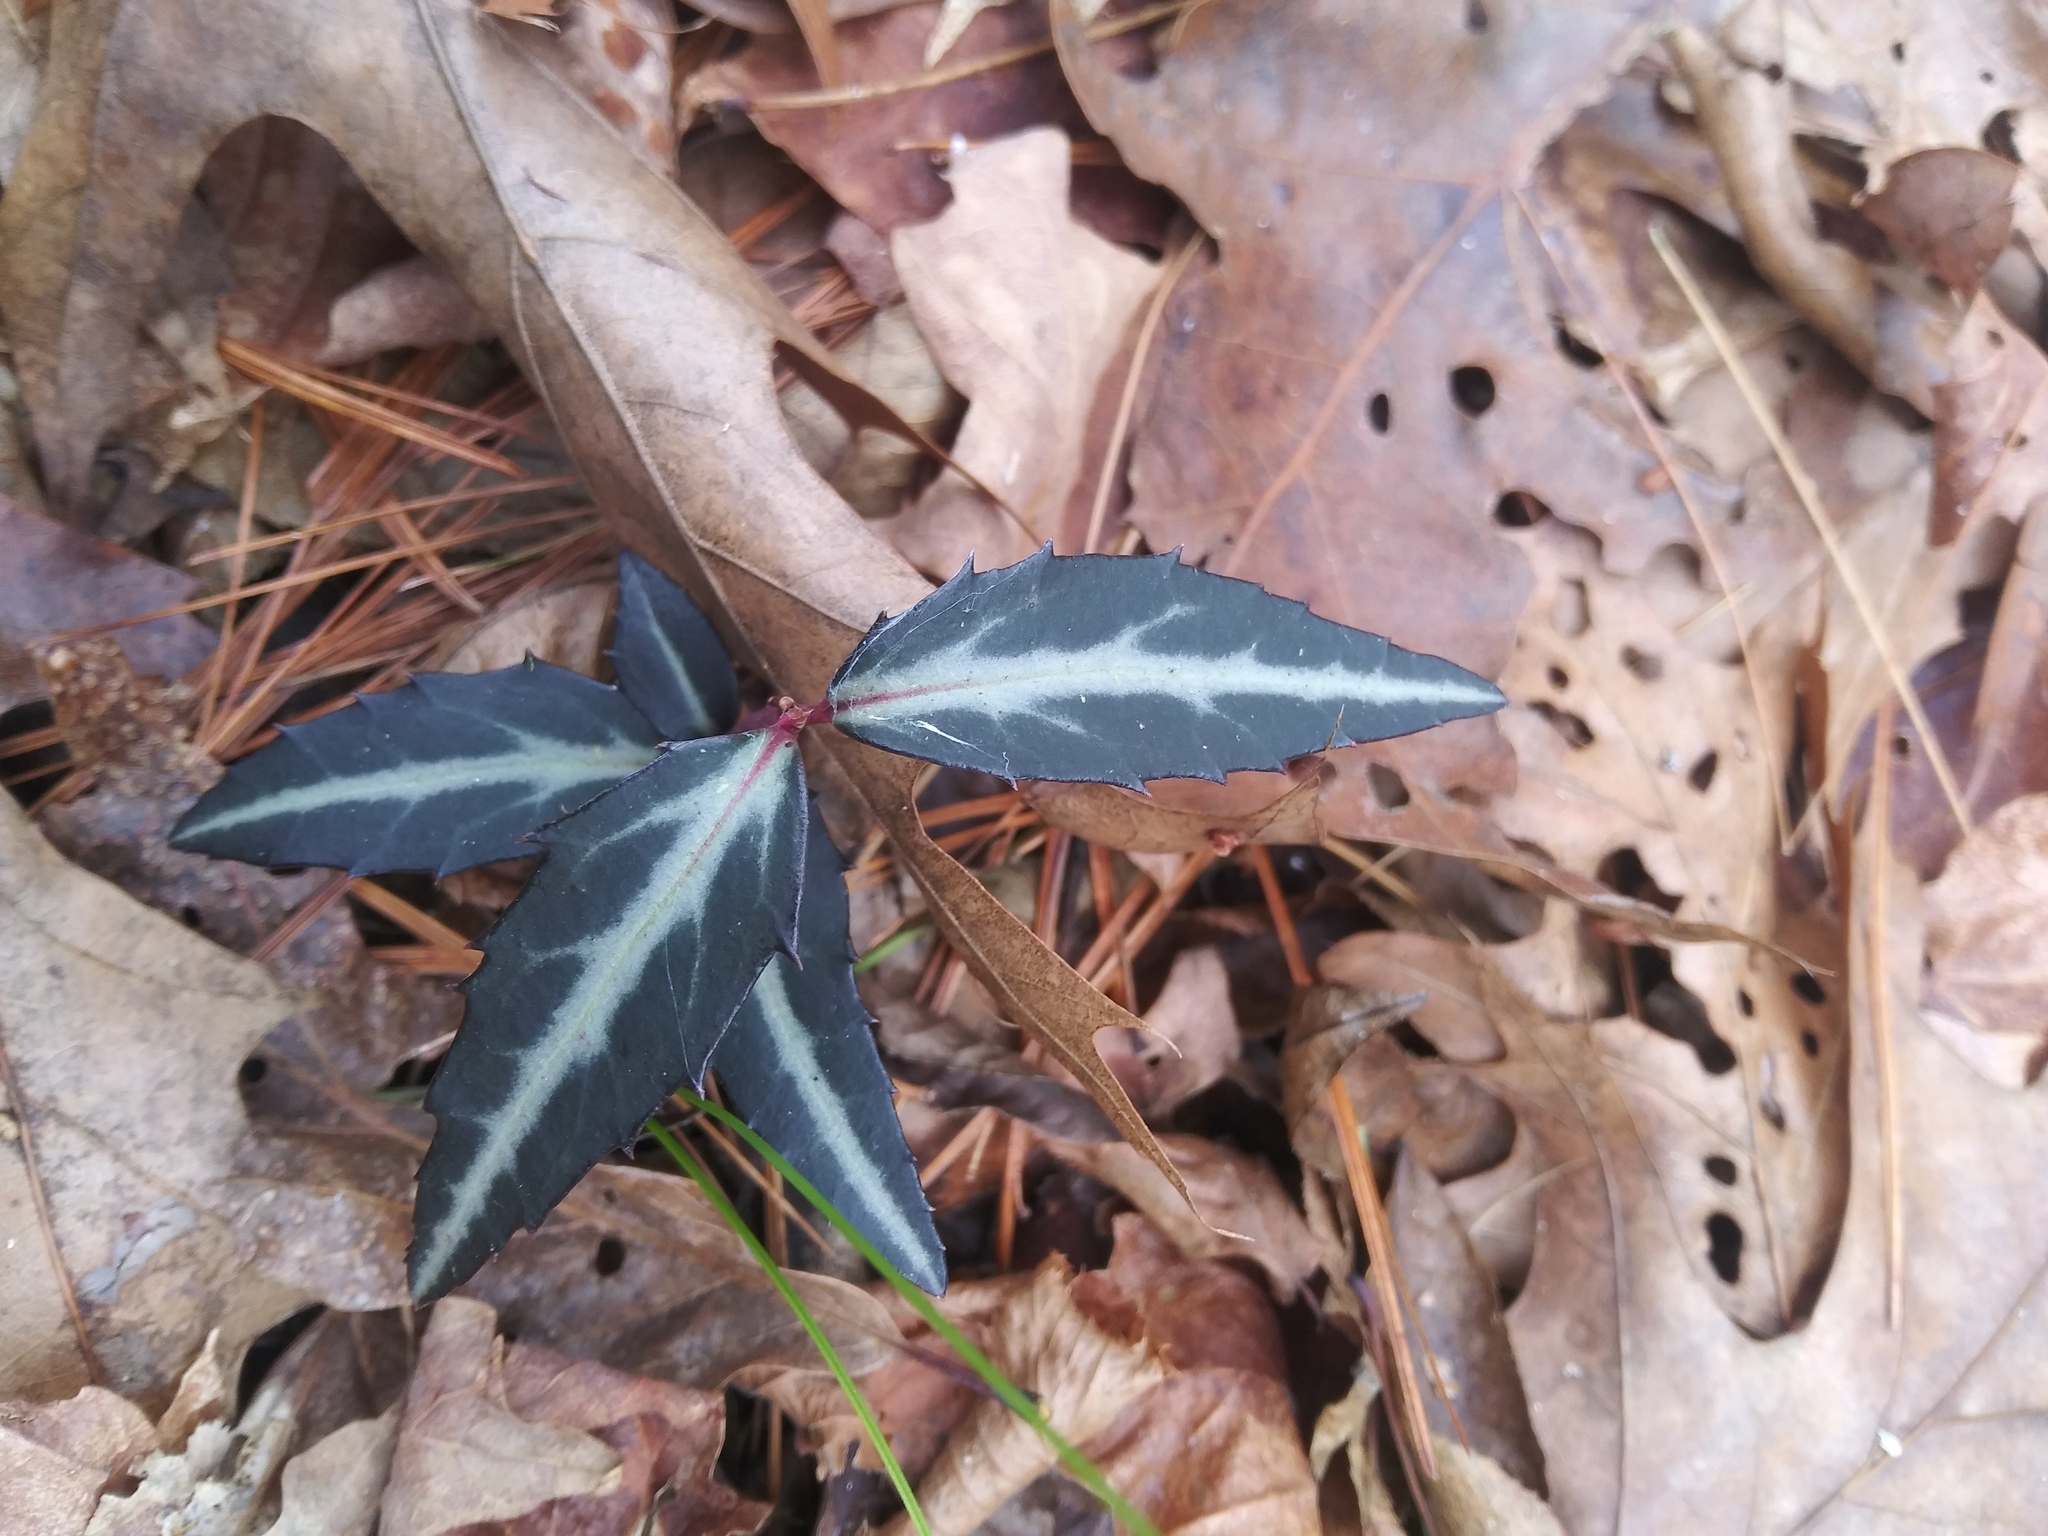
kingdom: Plantae
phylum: Tracheophyta
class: Magnoliopsida
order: Ericales
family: Ericaceae
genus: Chimaphila
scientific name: Chimaphila maculata
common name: Spotted pipsissewa
